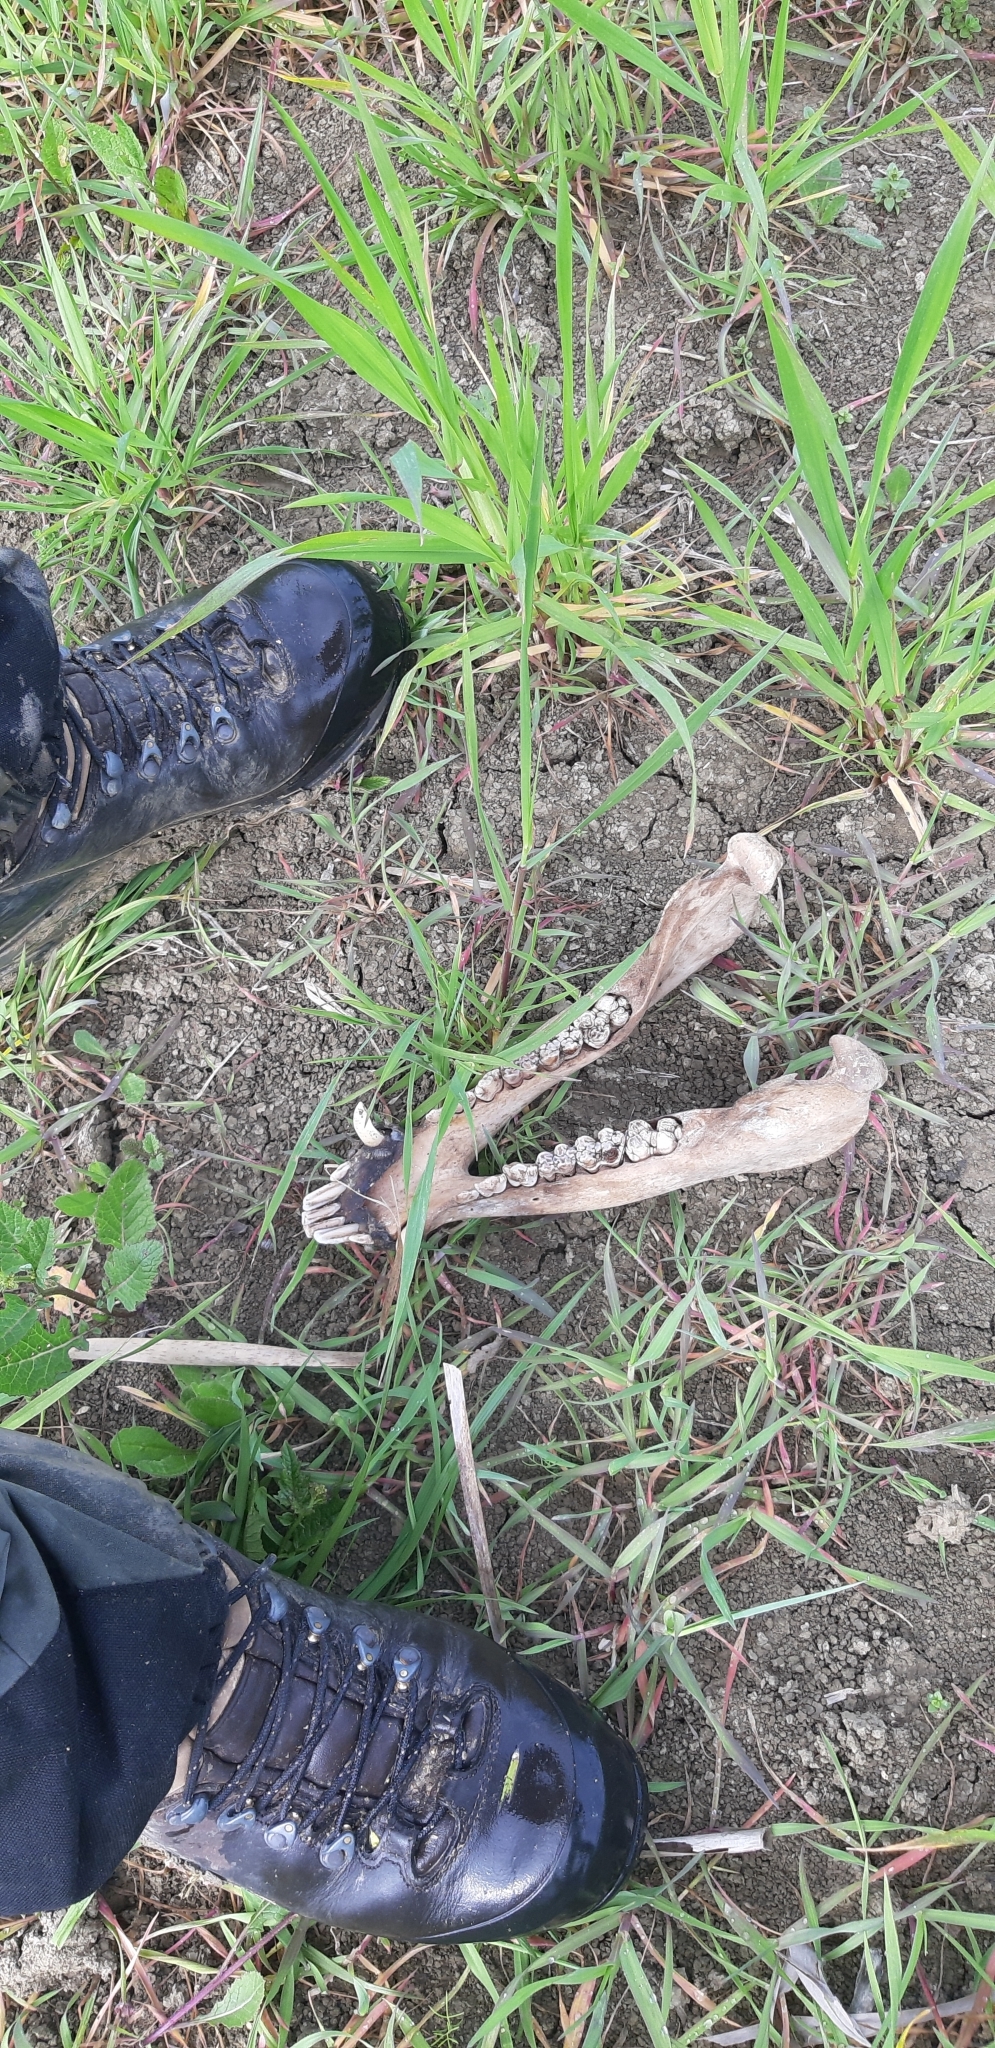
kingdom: Animalia
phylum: Chordata
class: Mammalia
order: Artiodactyla
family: Suidae
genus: Sus
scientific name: Sus scrofa
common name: Wild boar
